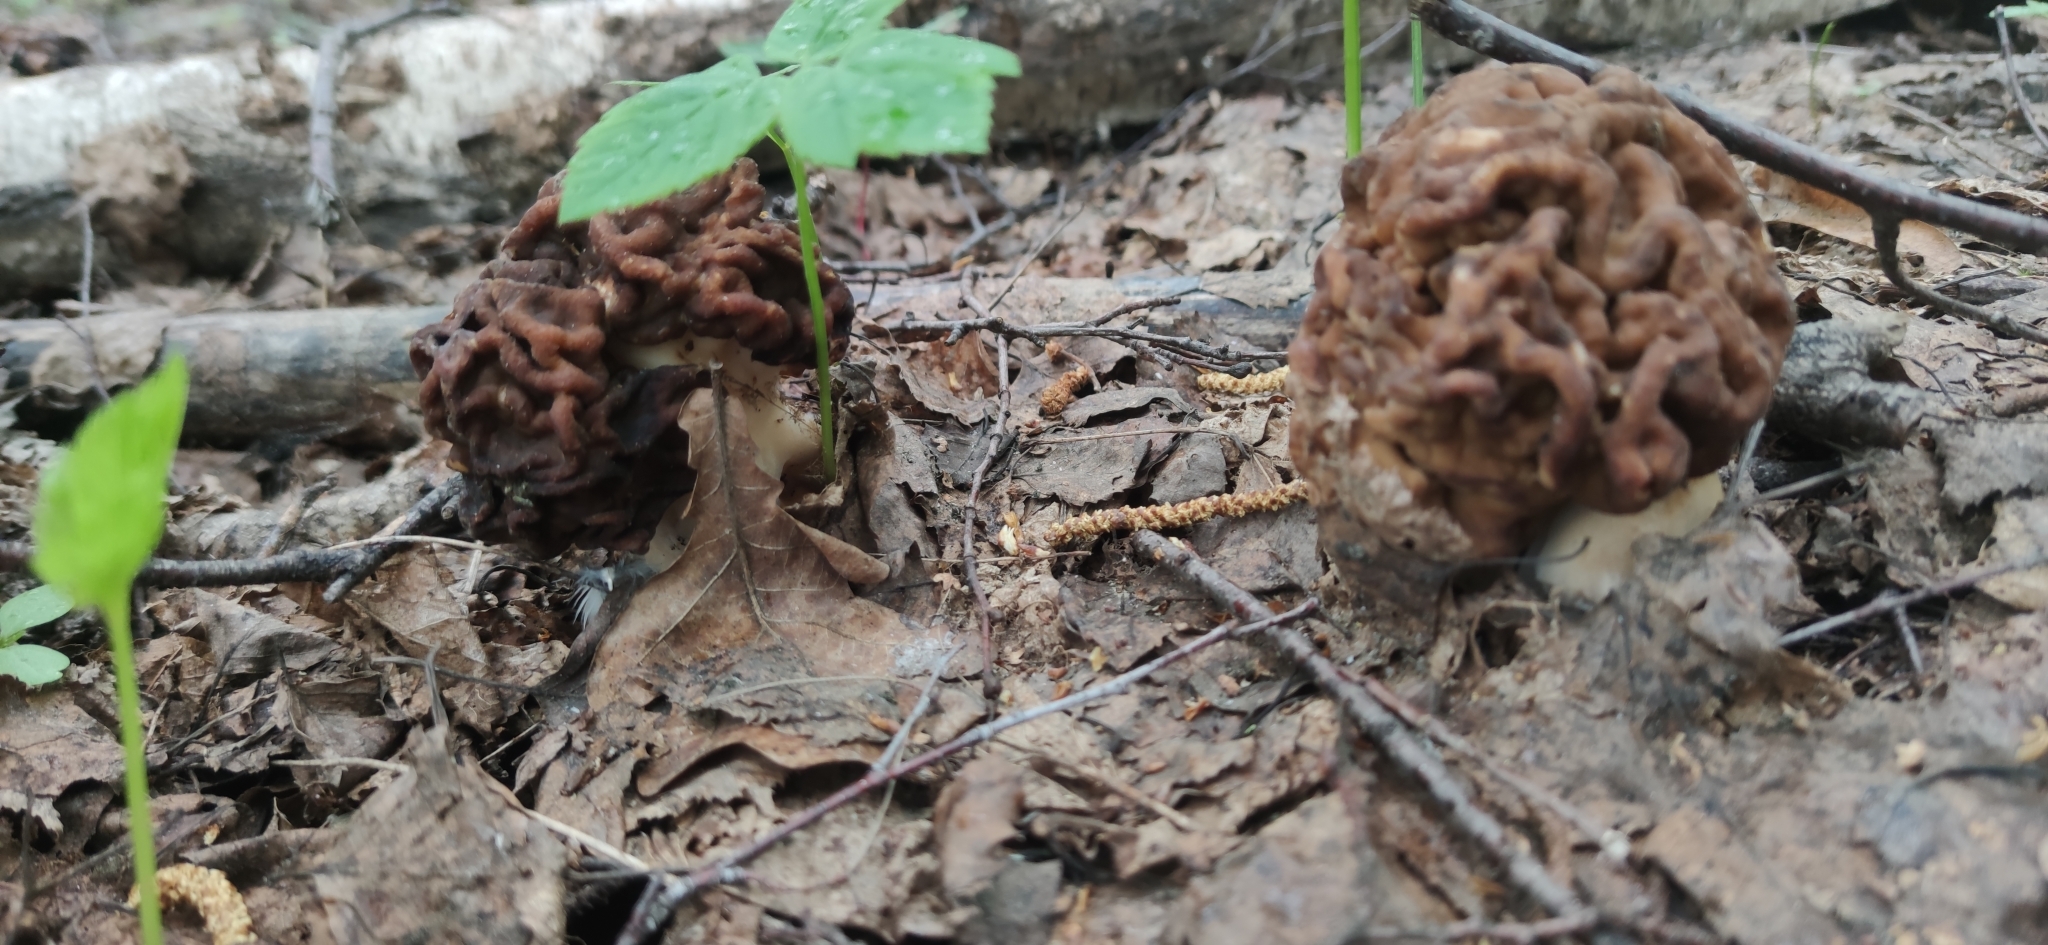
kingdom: Fungi
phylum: Ascomycota
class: Pezizomycetes
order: Pezizales
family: Discinaceae
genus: Gyromitra
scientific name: Gyromitra gigas
